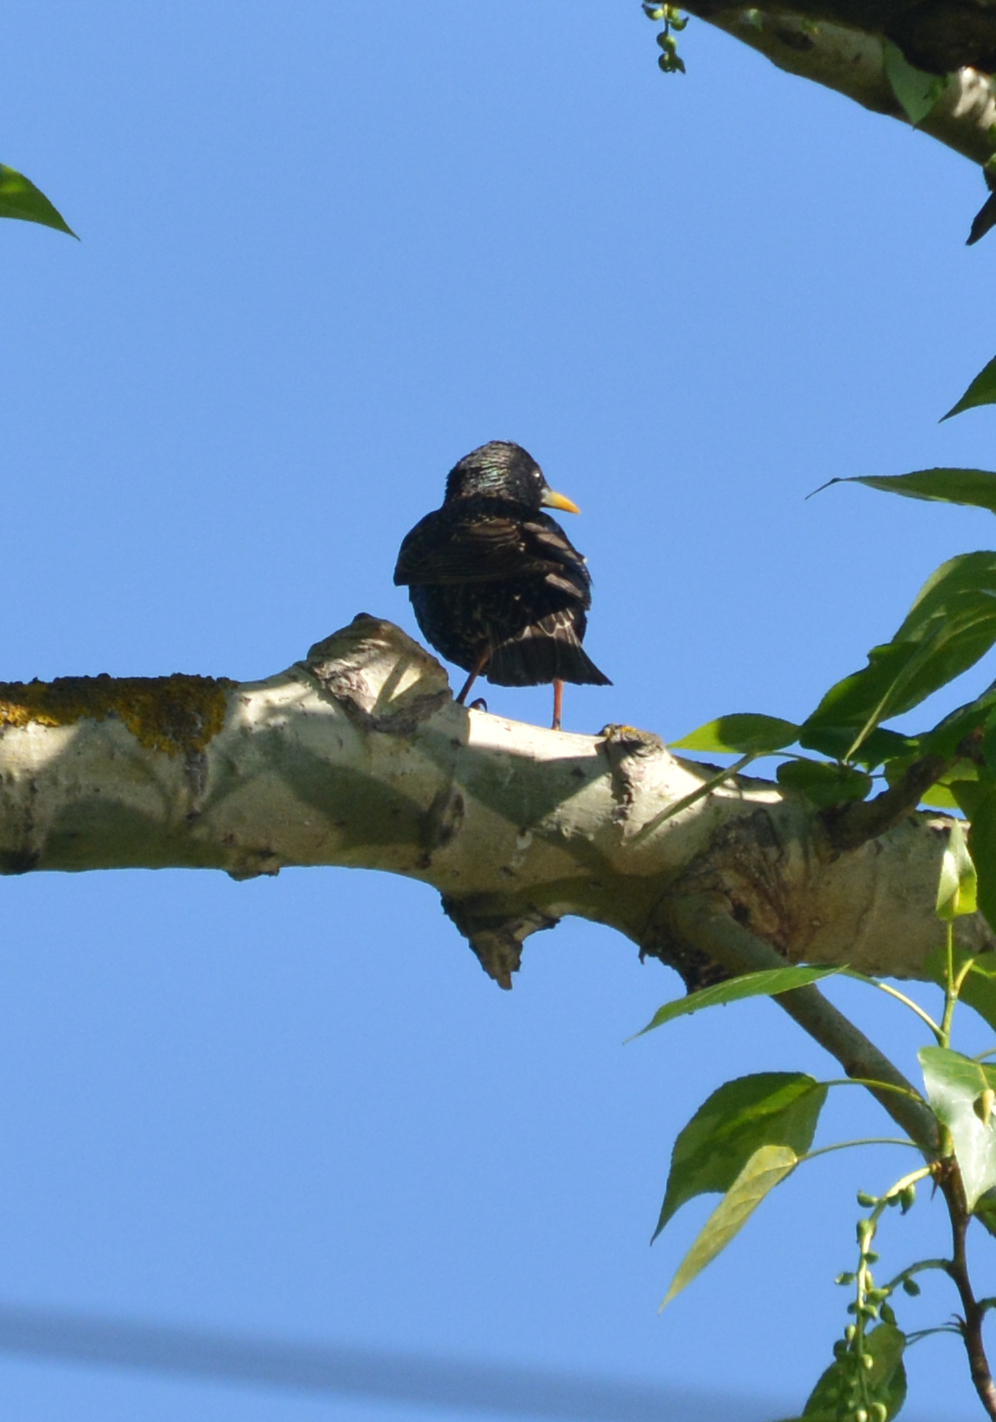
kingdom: Animalia
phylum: Chordata
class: Aves
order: Passeriformes
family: Sturnidae
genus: Sturnus
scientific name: Sturnus vulgaris
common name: Common starling
